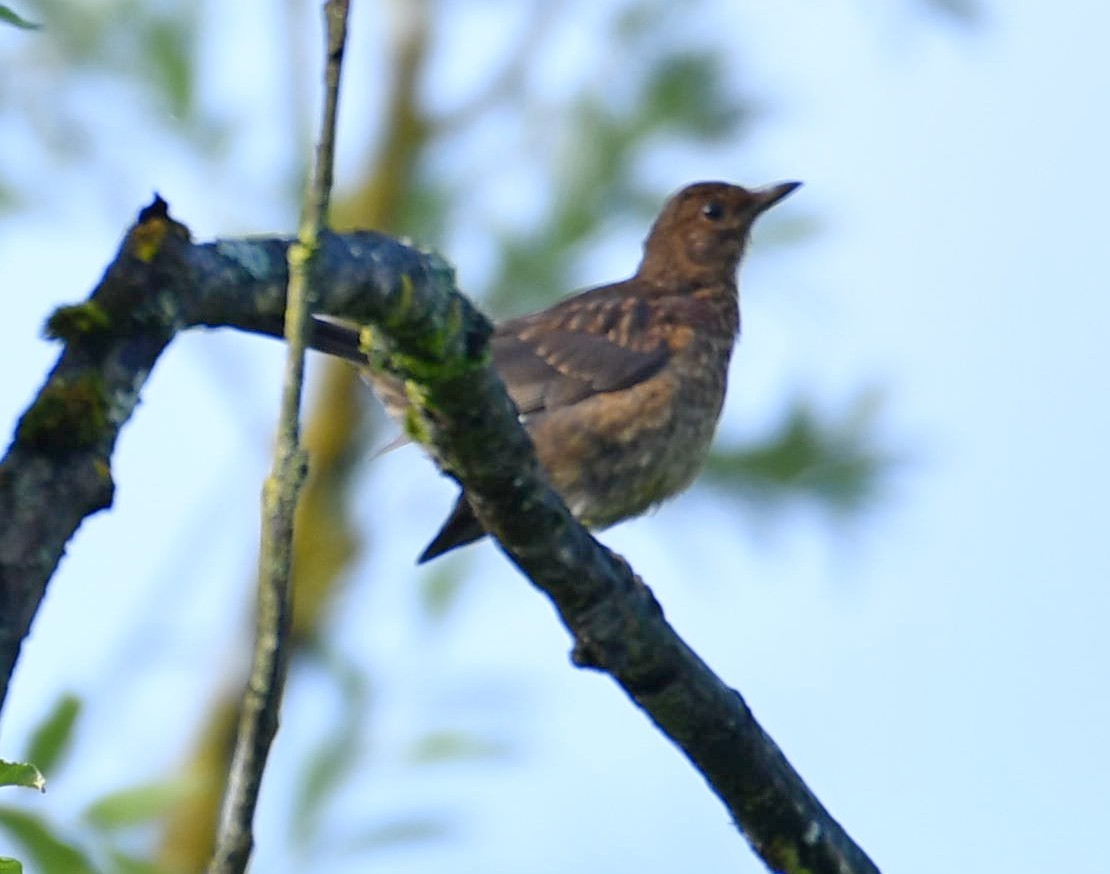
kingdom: Animalia
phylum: Chordata
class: Aves
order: Passeriformes
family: Turdidae
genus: Turdus
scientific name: Turdus merula
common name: Common blackbird
